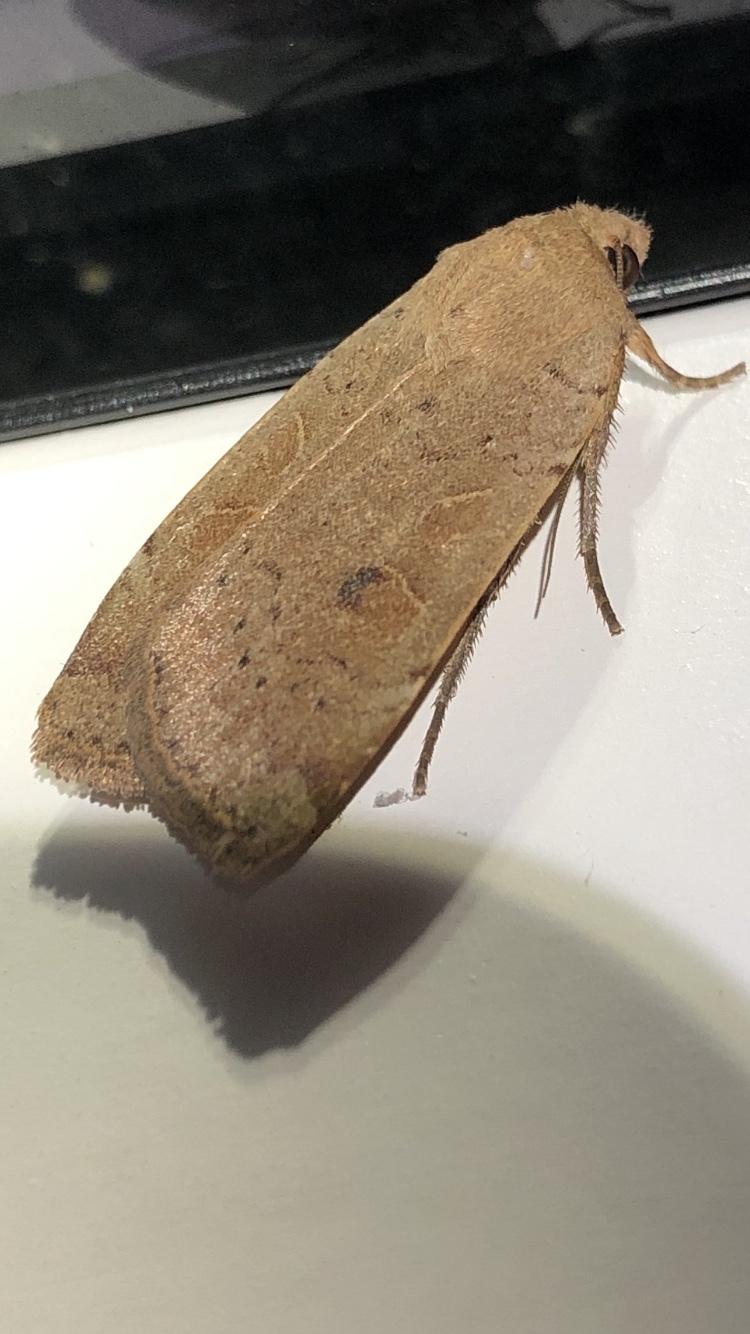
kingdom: Animalia
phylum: Arthropoda
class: Insecta
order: Lepidoptera
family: Noctuidae
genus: Noctua
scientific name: Noctua comes
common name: Lesser yellow underwing
